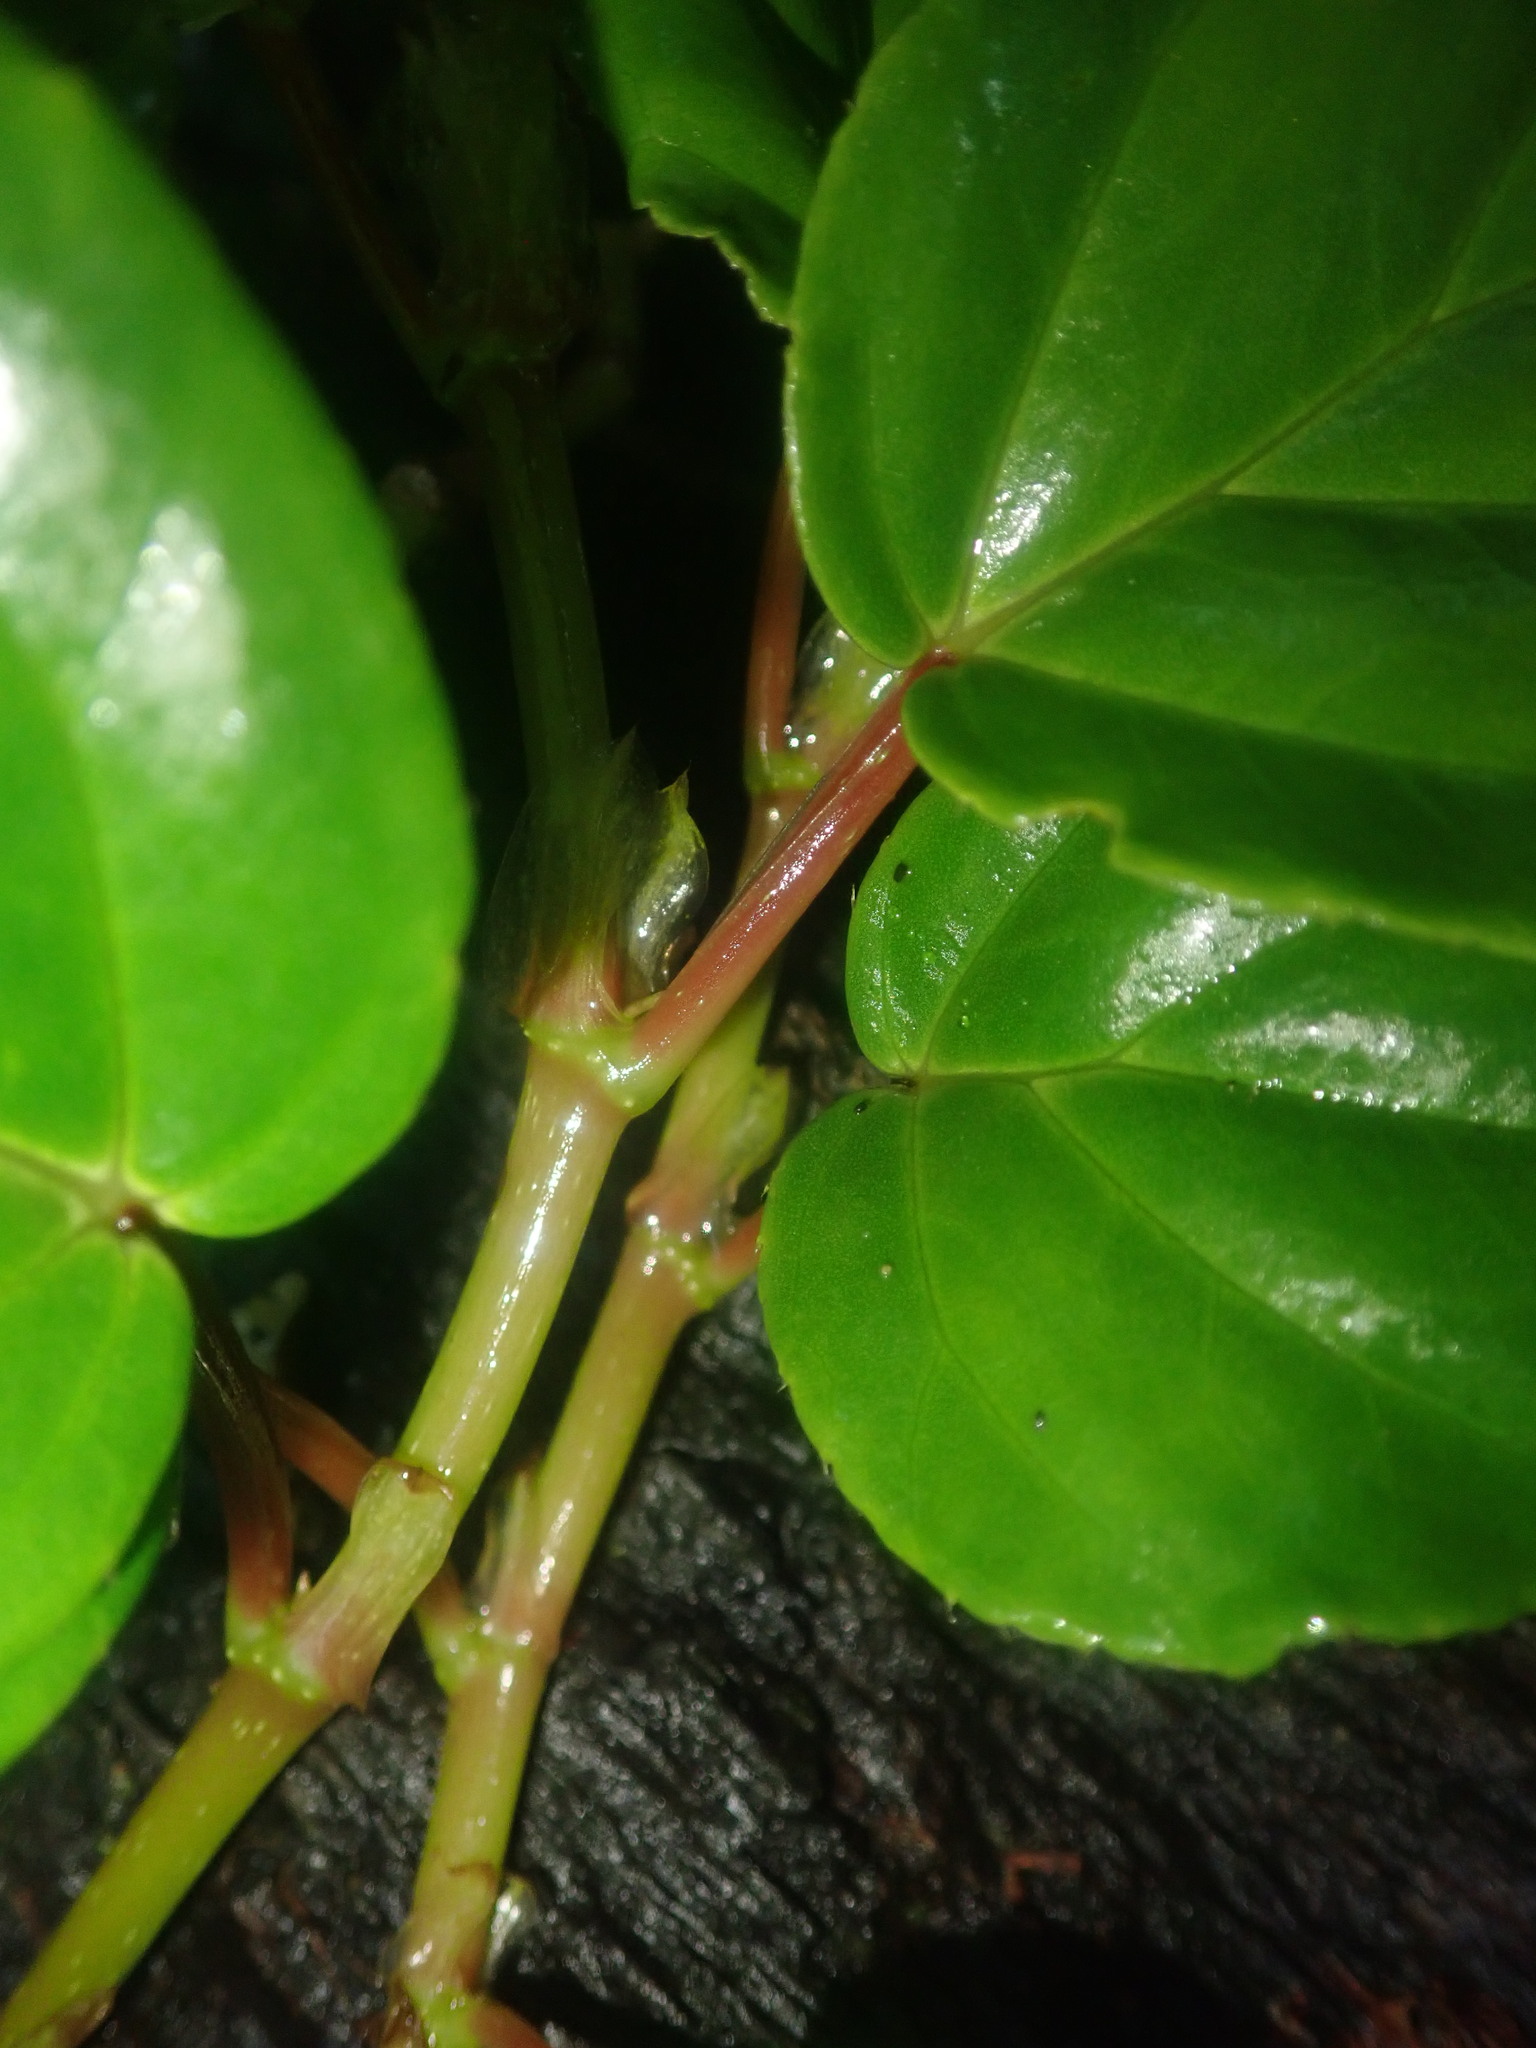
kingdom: Plantae
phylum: Tracheophyta
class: Magnoliopsida
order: Cucurbitales
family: Begoniaceae
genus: Begonia
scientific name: Begonia glabra
